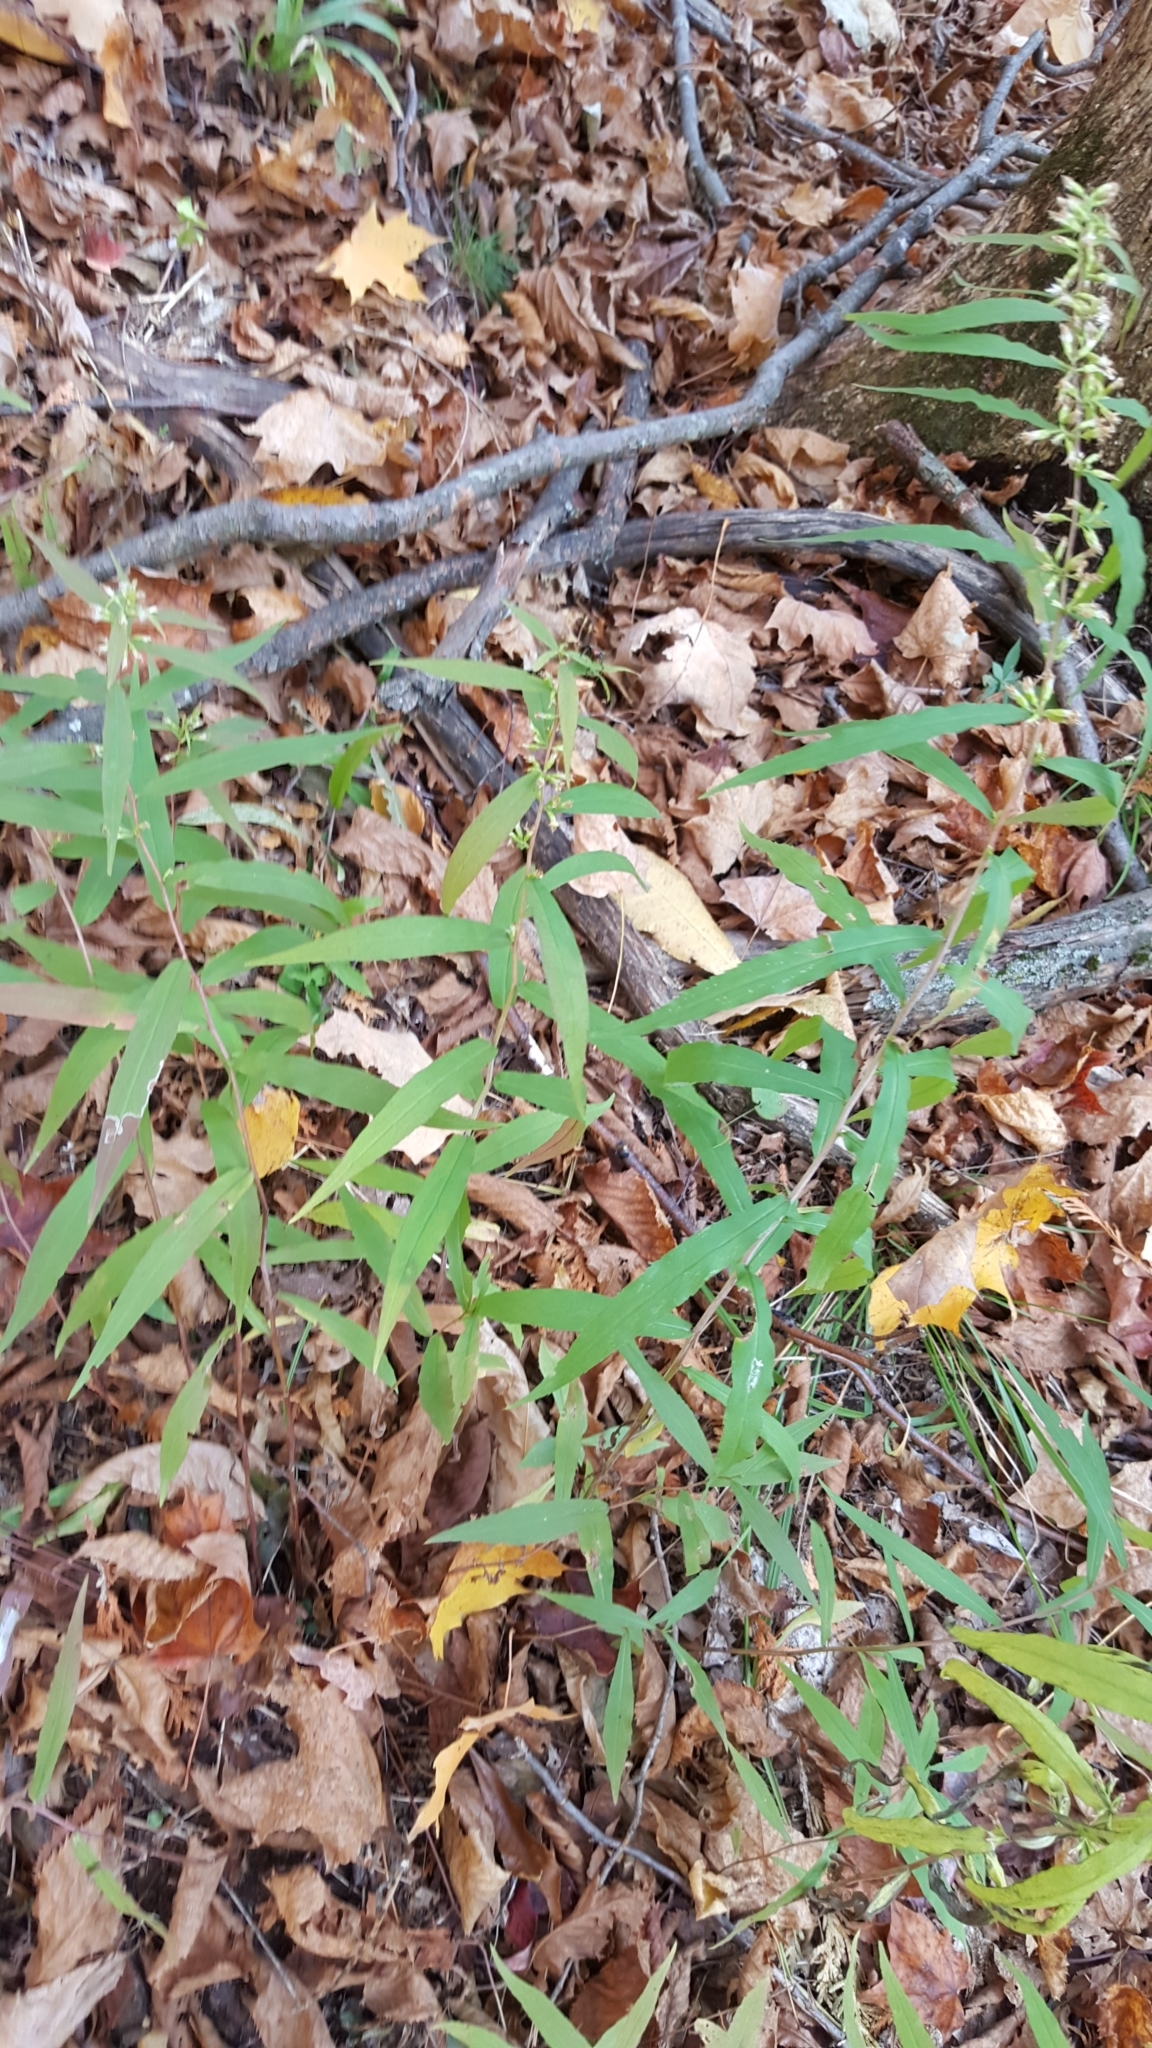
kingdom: Plantae
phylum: Tracheophyta
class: Magnoliopsida
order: Asterales
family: Asteraceae
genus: Solidago
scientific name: Solidago caesia
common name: Woodland goldenrod
